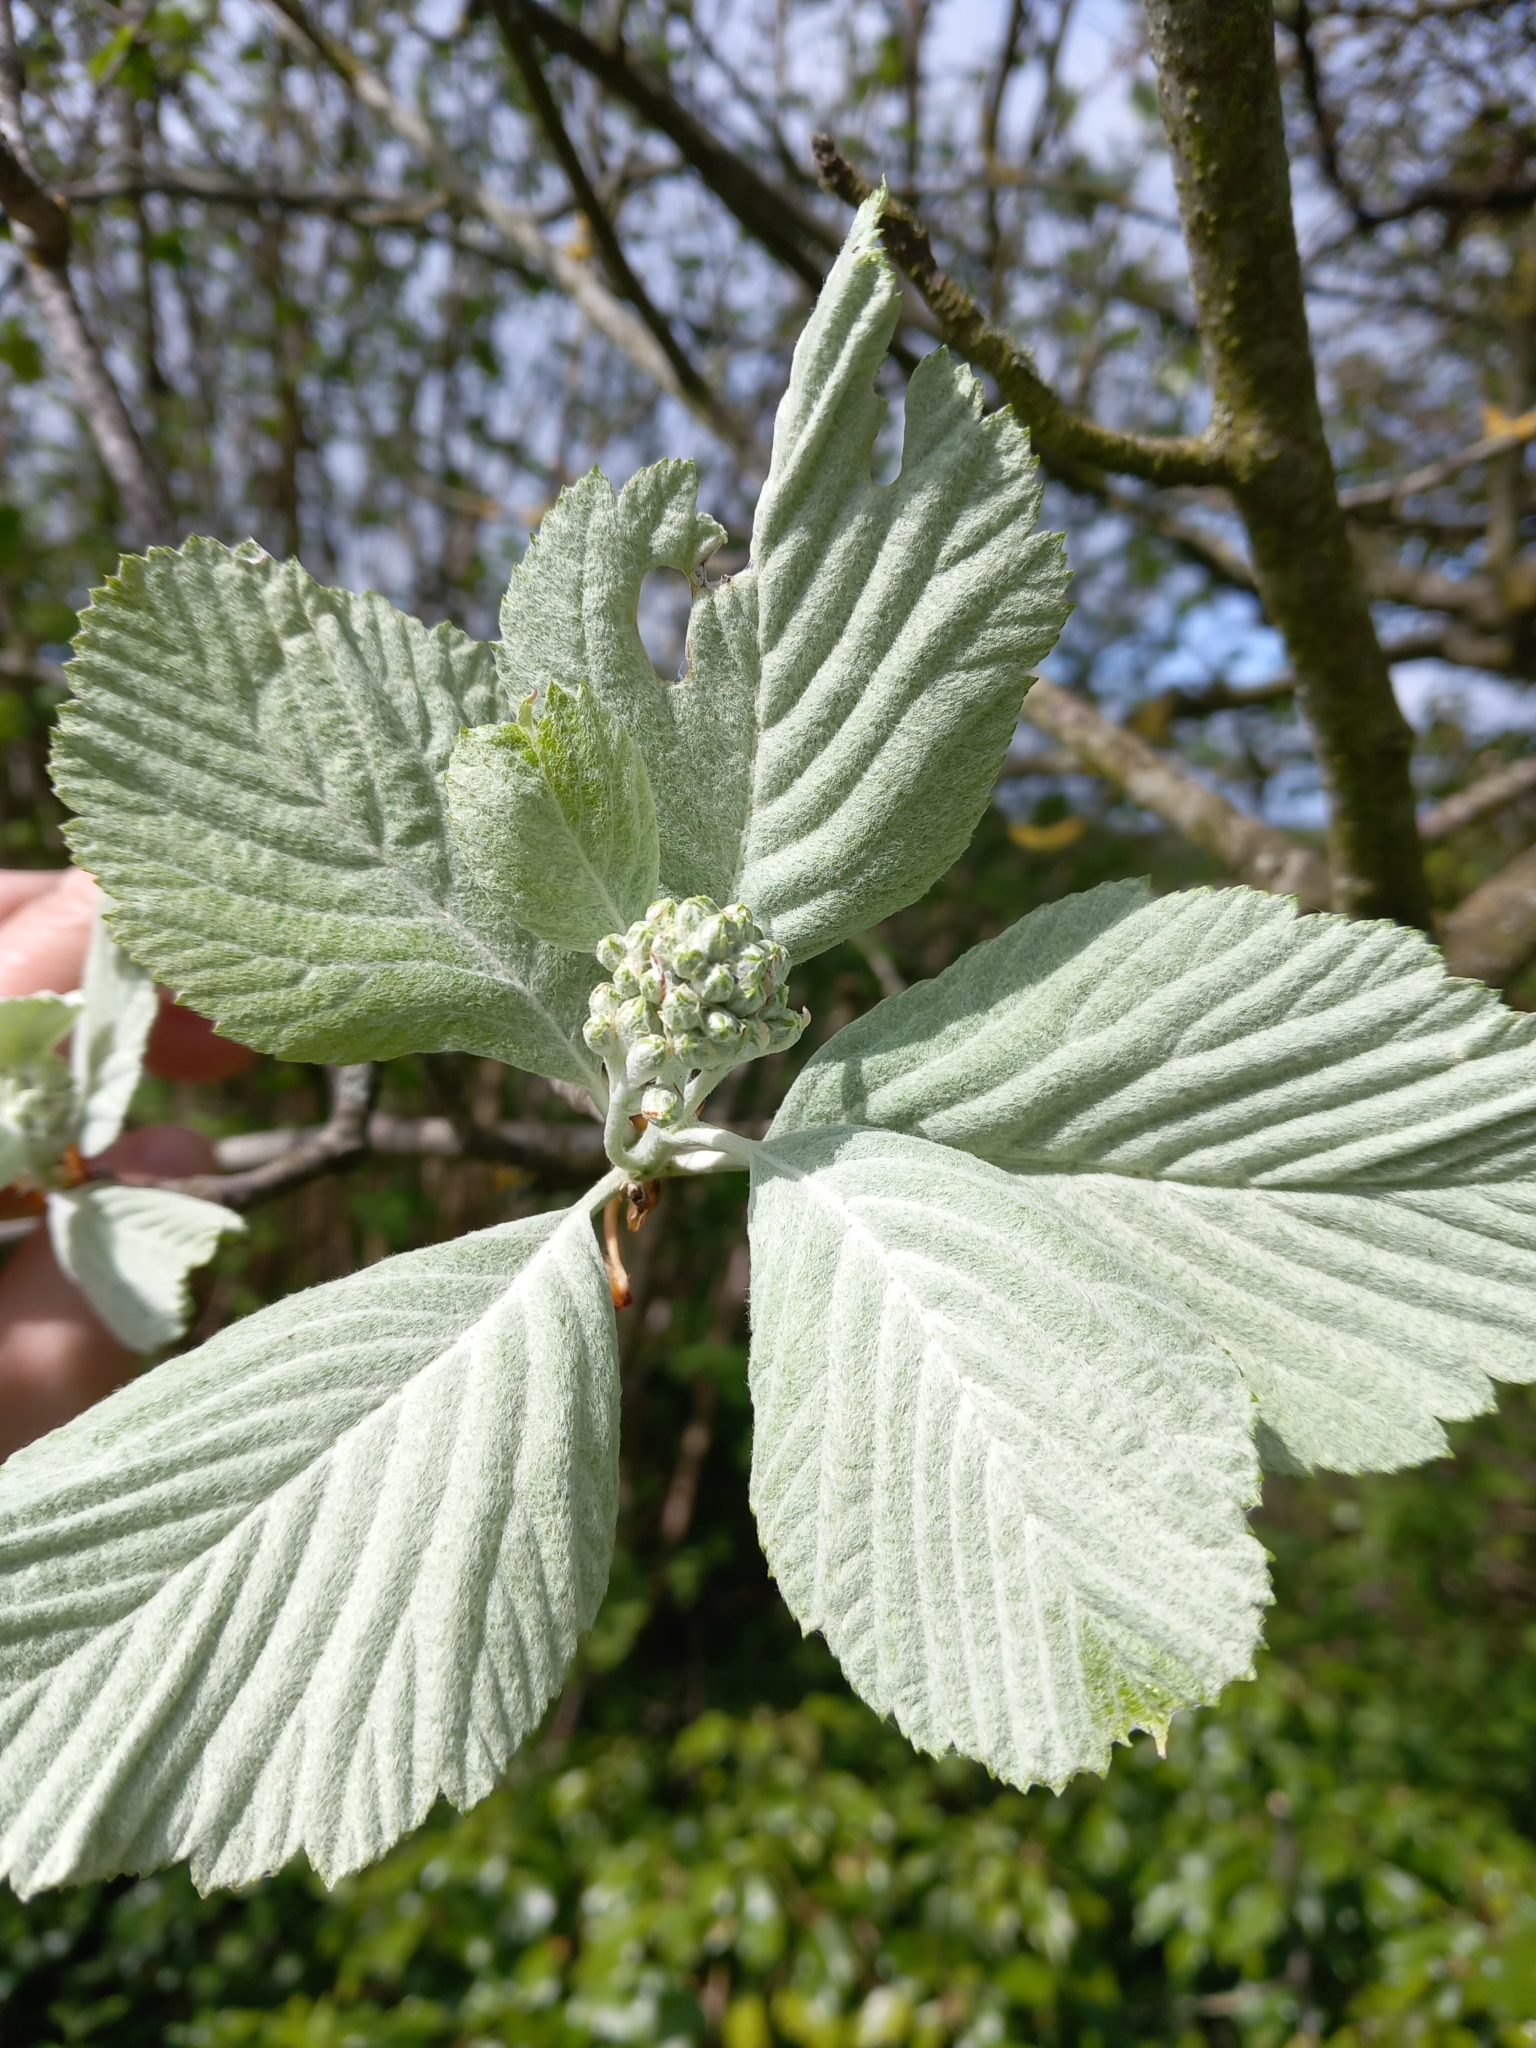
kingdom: Plantae
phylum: Tracheophyta
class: Magnoliopsida
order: Rosales
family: Rosaceae
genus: Aria
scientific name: Aria edulis
